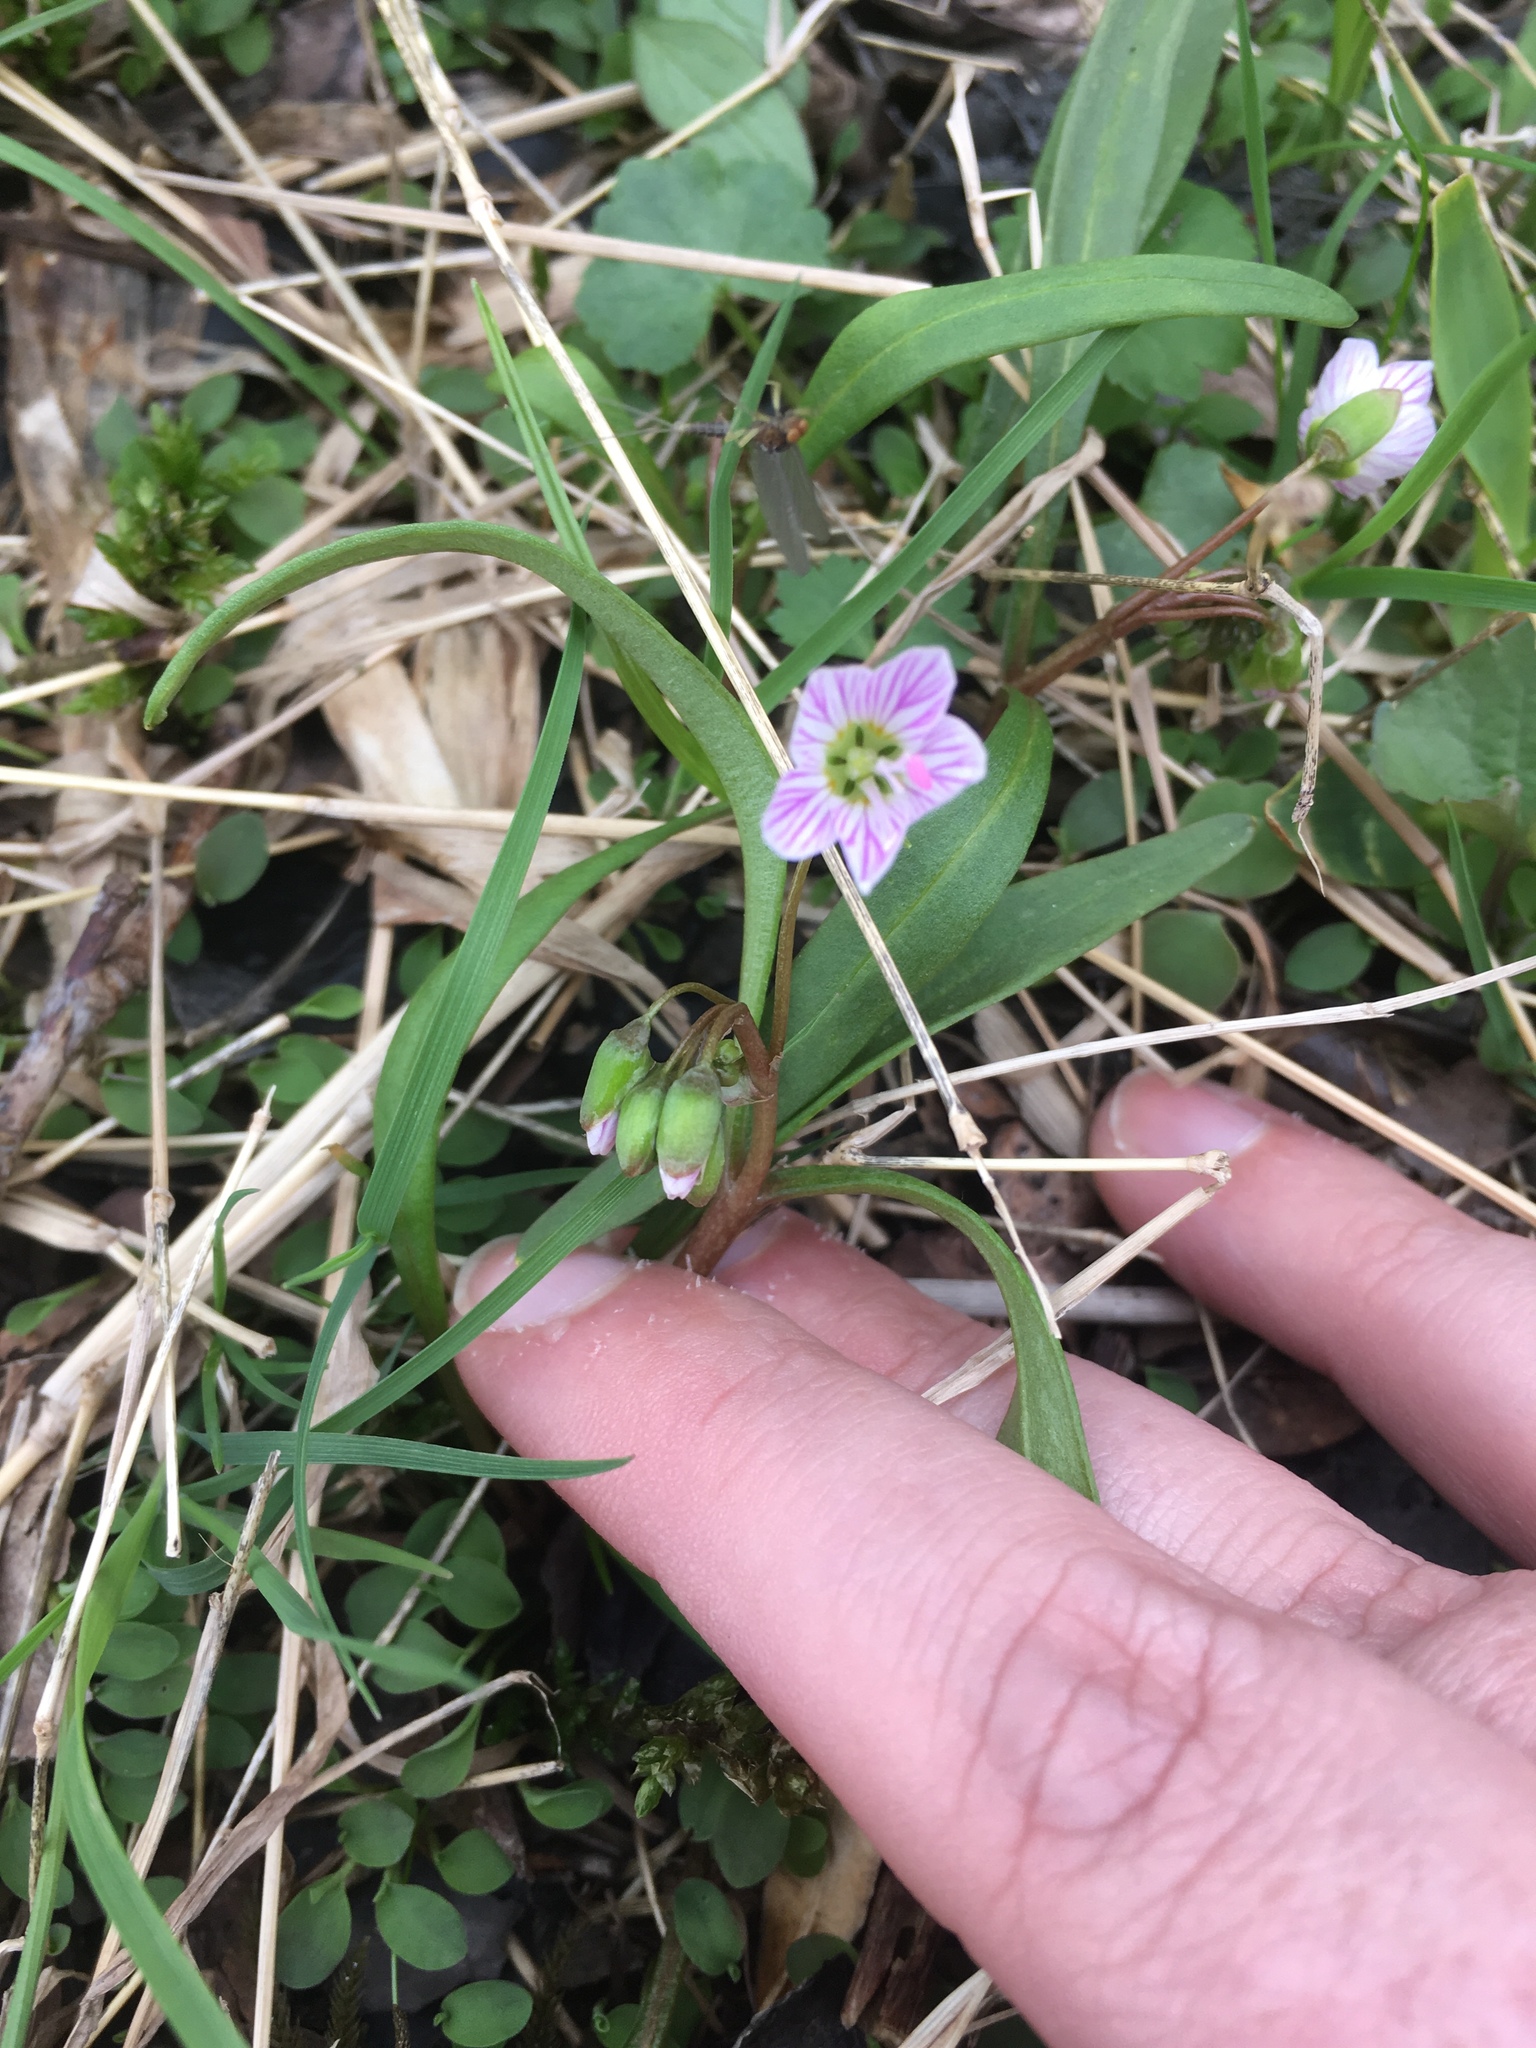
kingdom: Plantae
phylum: Tracheophyta
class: Magnoliopsida
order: Caryophyllales
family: Montiaceae
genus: Claytonia
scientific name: Claytonia virginica
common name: Virginia springbeauty
